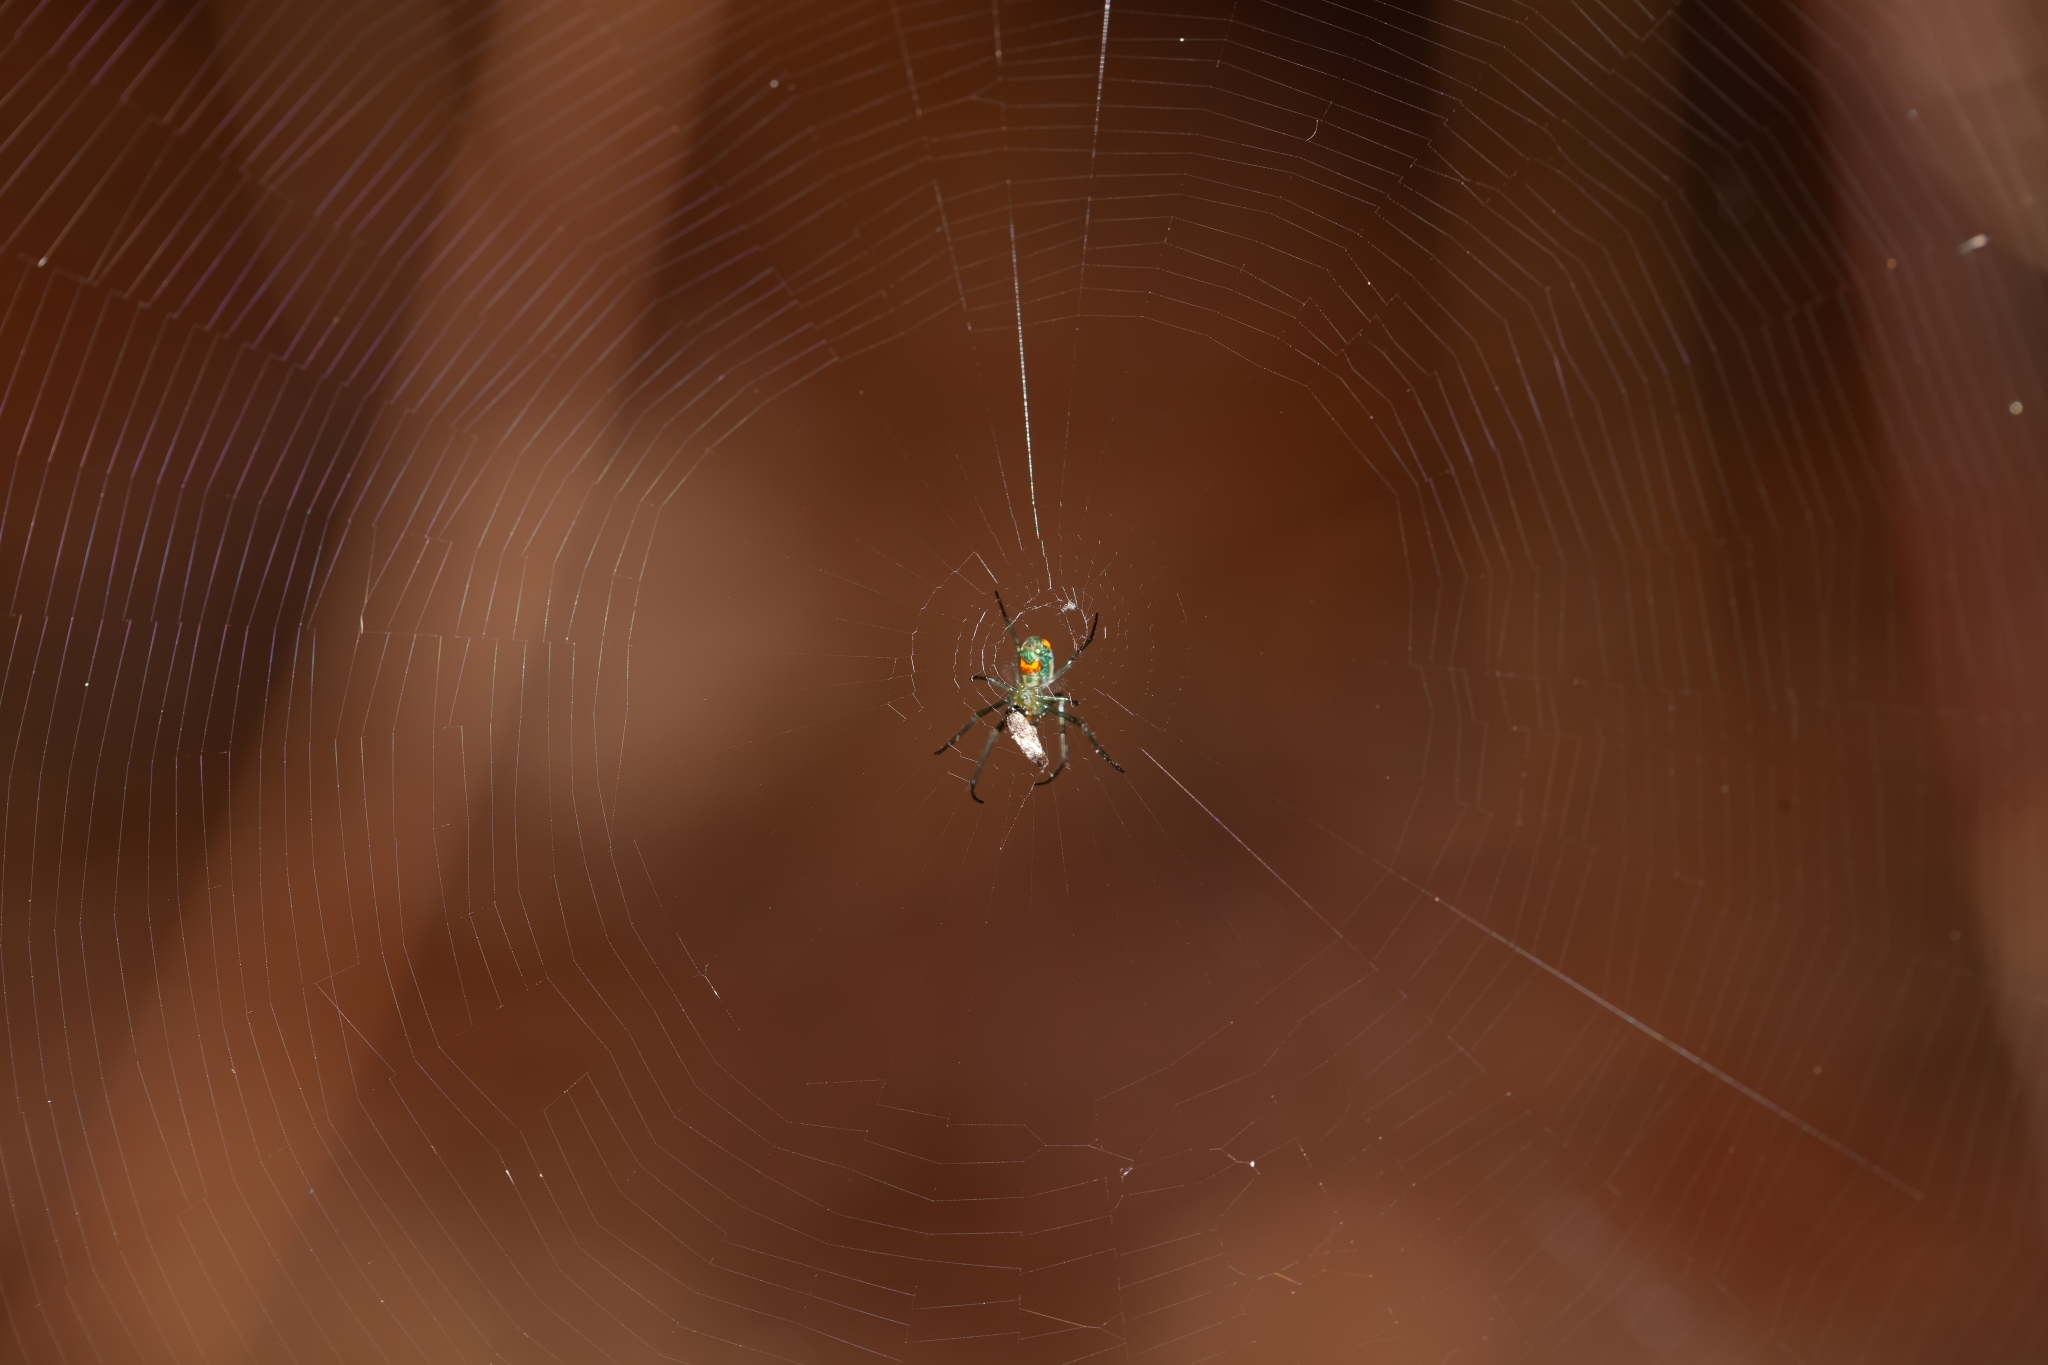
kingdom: Animalia
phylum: Arthropoda
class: Arachnida
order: Araneae
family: Tetragnathidae
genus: Leucauge
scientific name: Leucauge argyrobapta
